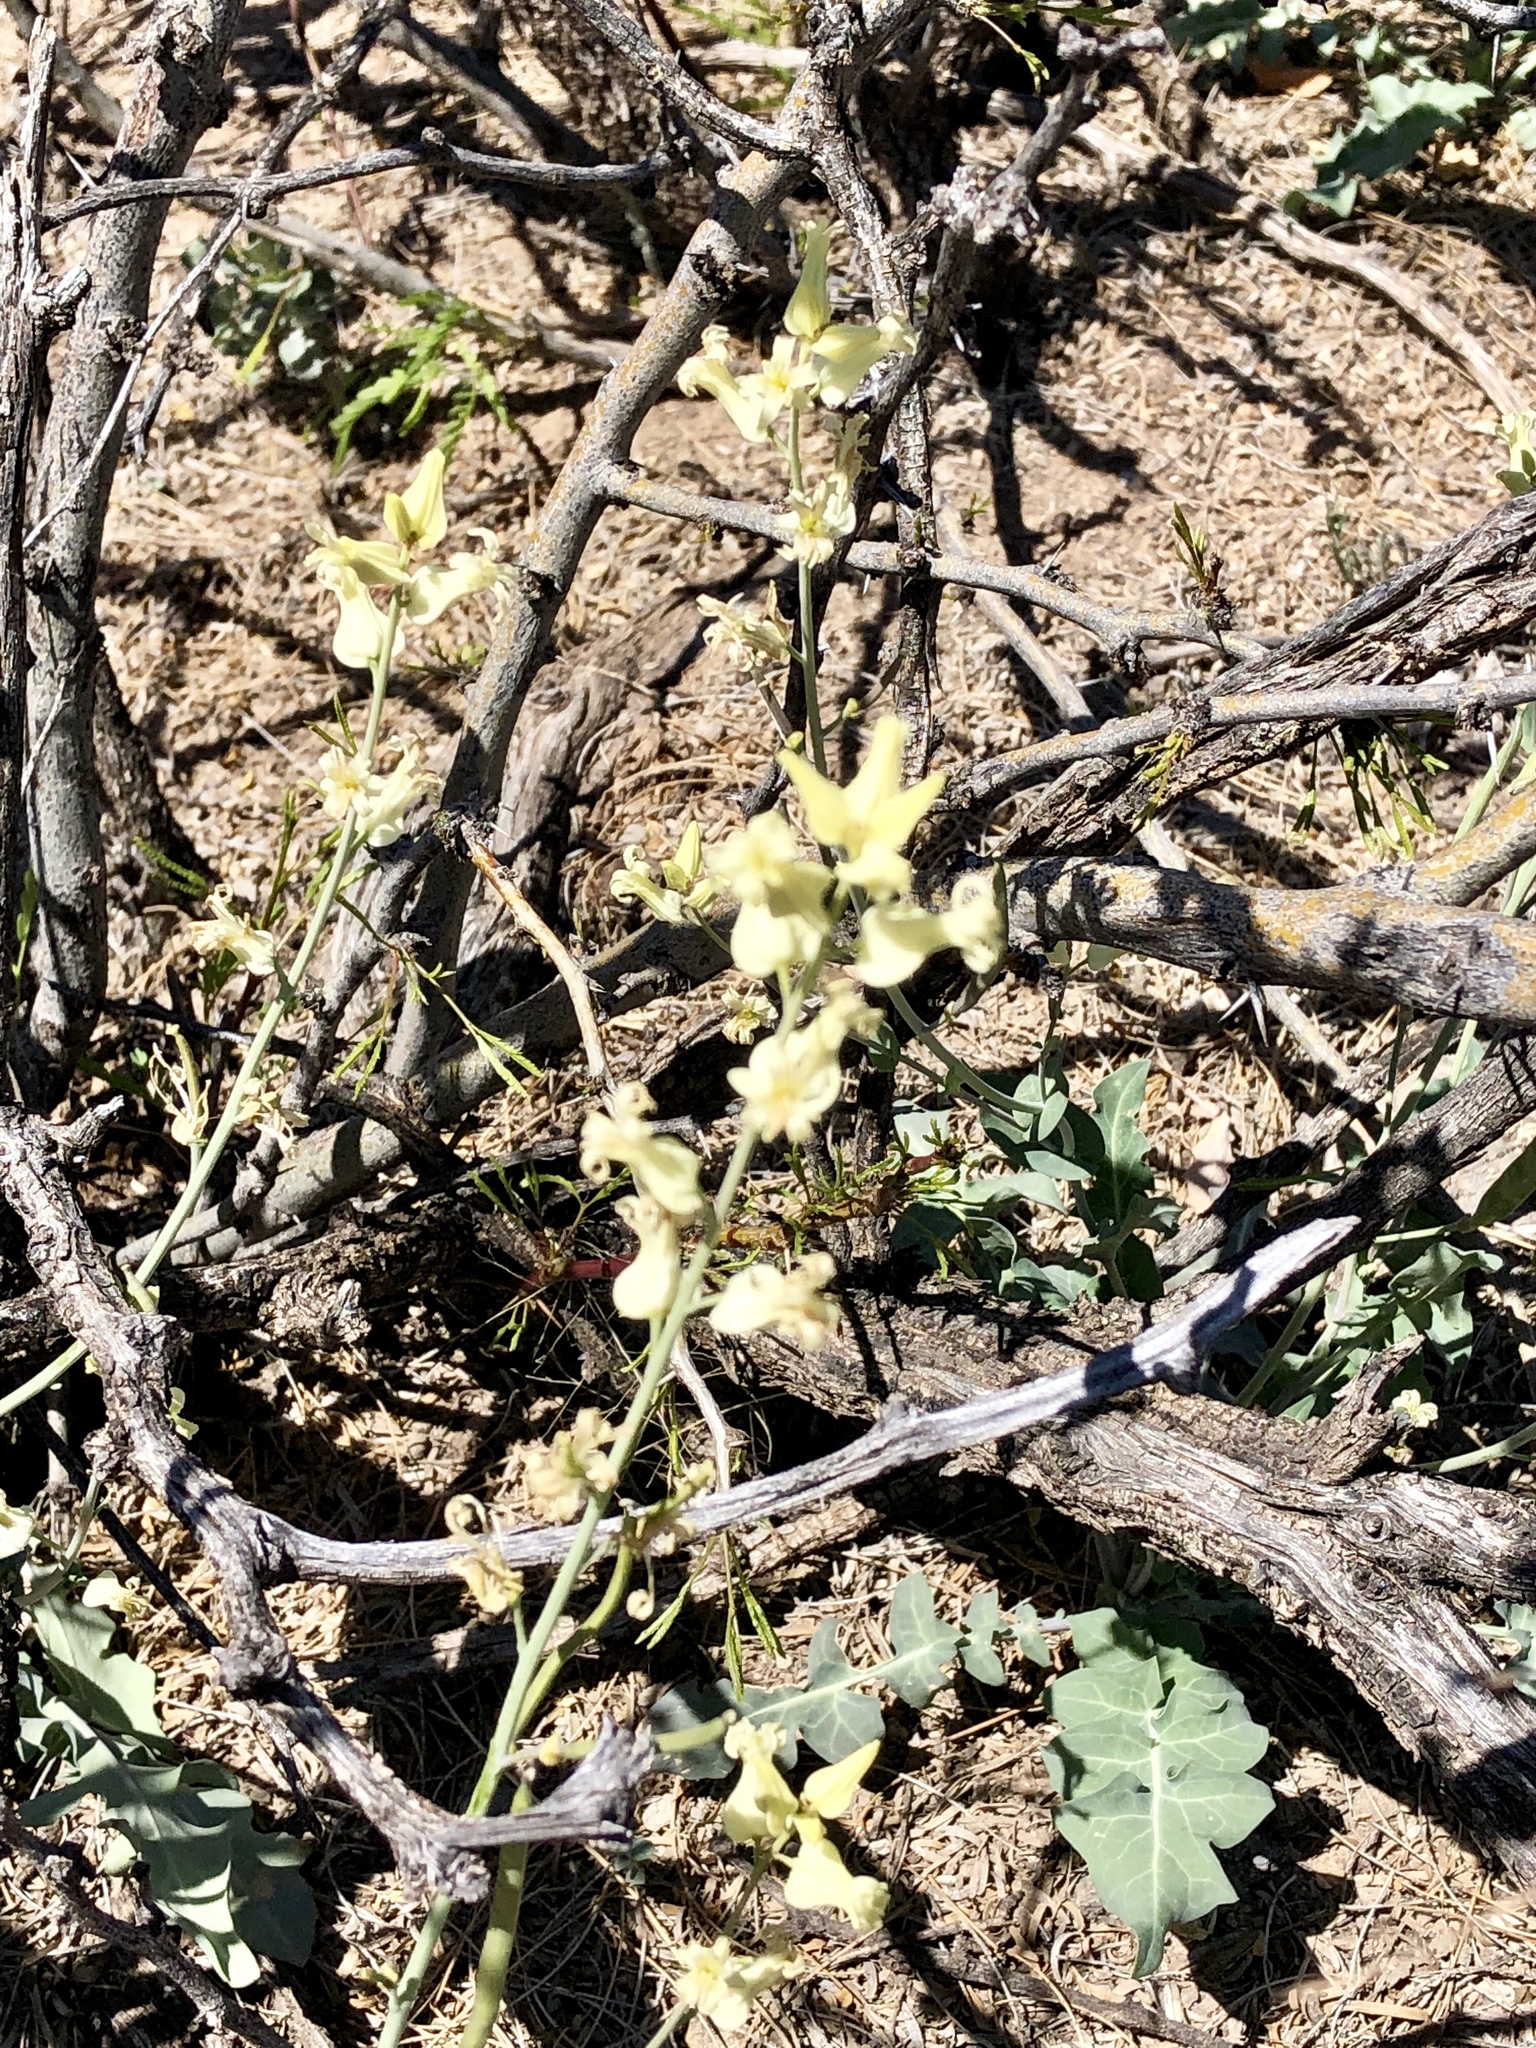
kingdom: Plantae
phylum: Tracheophyta
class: Magnoliopsida
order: Brassicales
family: Brassicaceae
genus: Streptanthus
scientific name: Streptanthus carinatus
